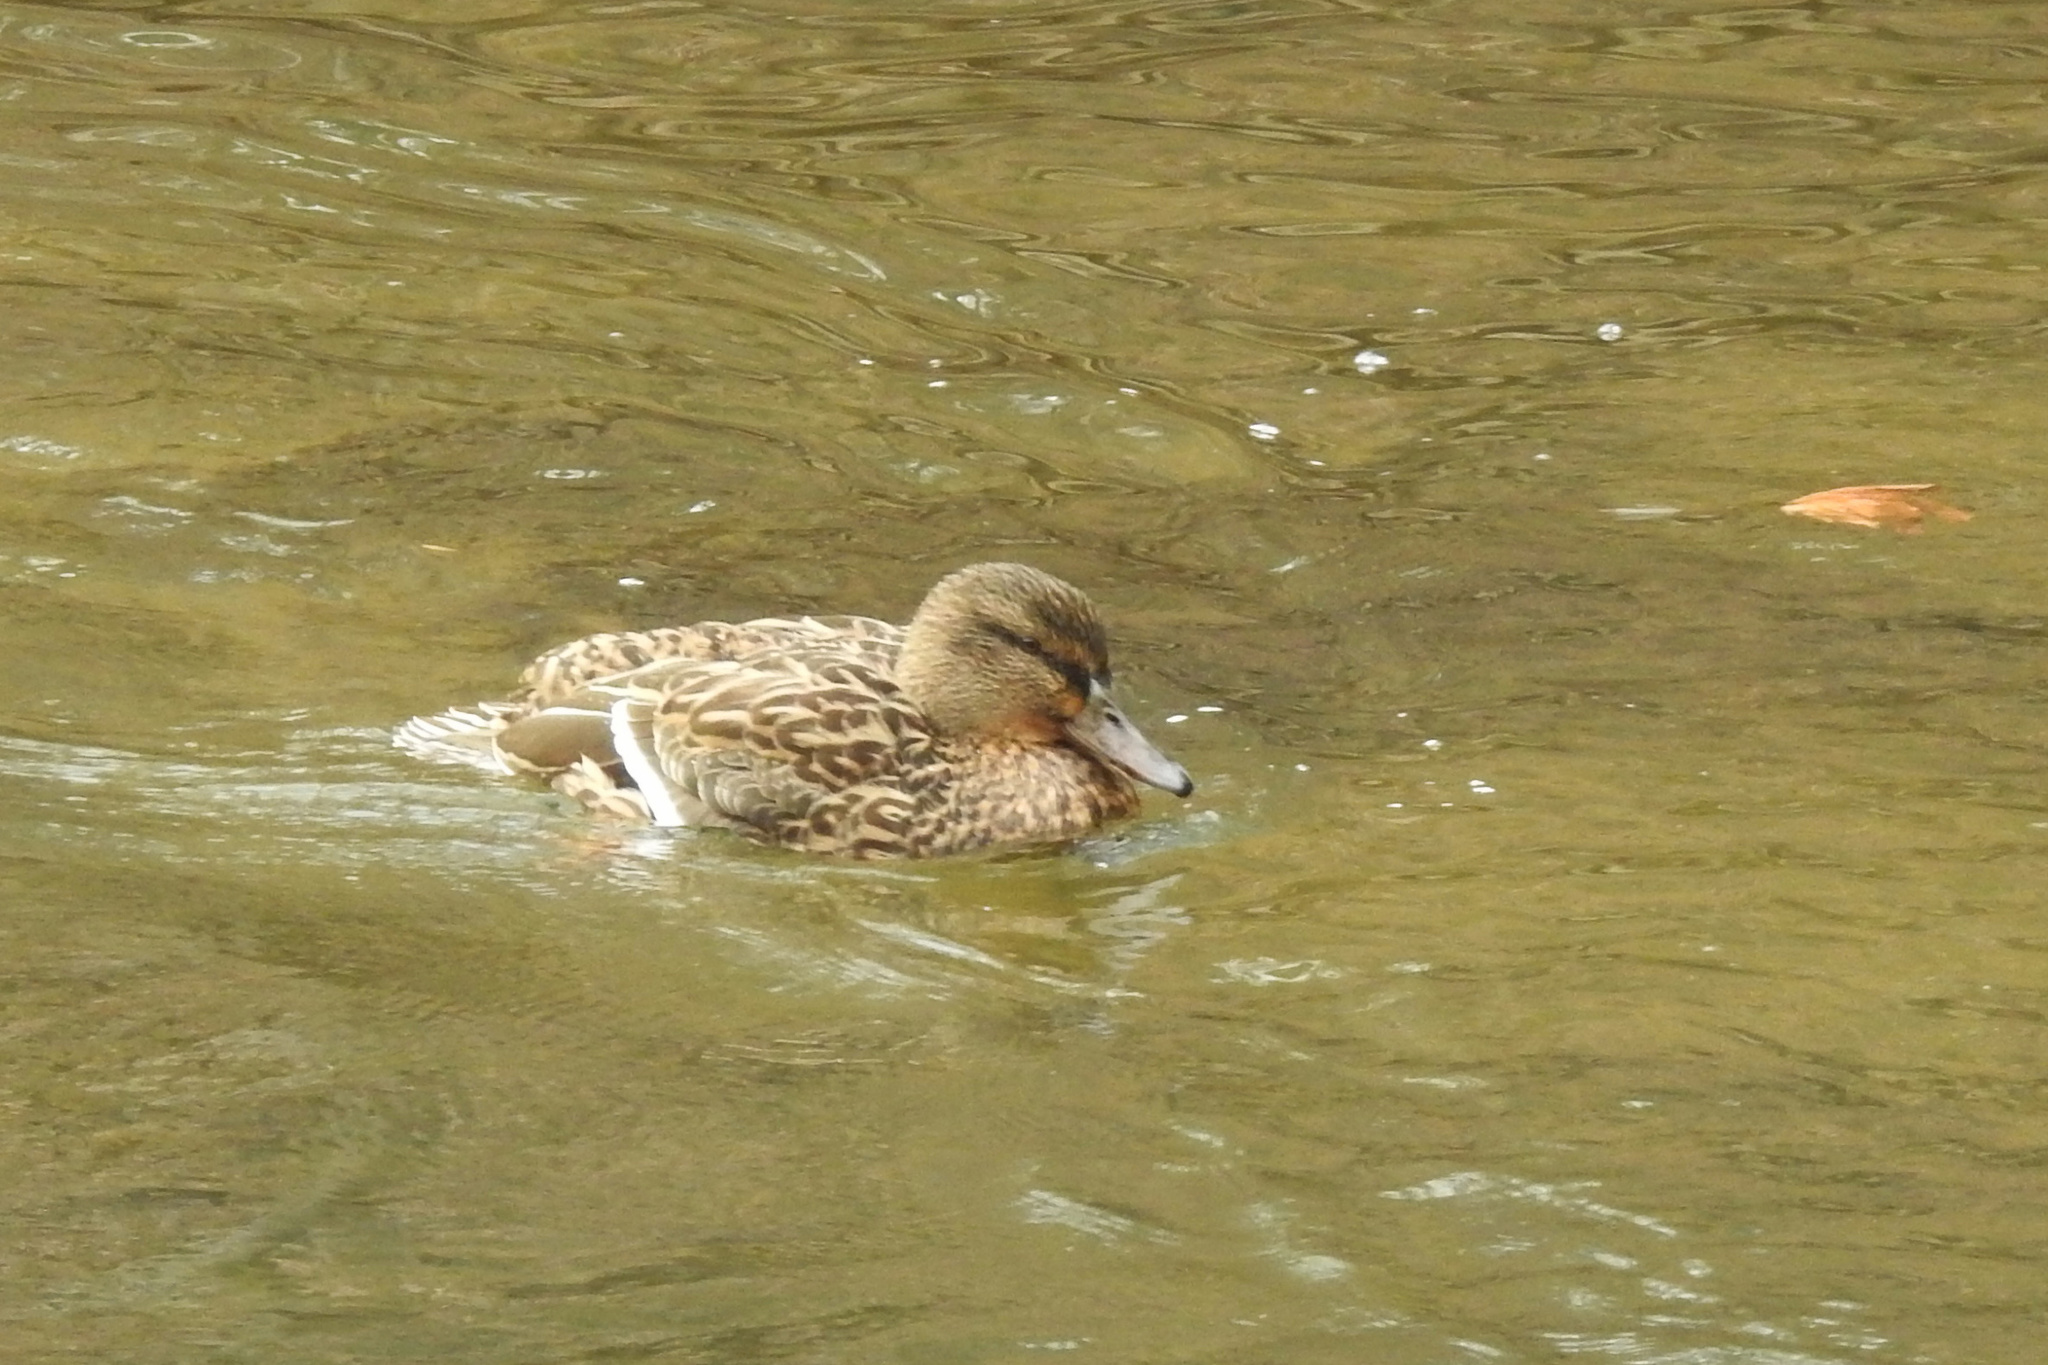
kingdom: Animalia
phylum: Chordata
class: Aves
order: Anseriformes
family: Anatidae
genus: Anas
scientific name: Anas platyrhynchos
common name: Mallard
